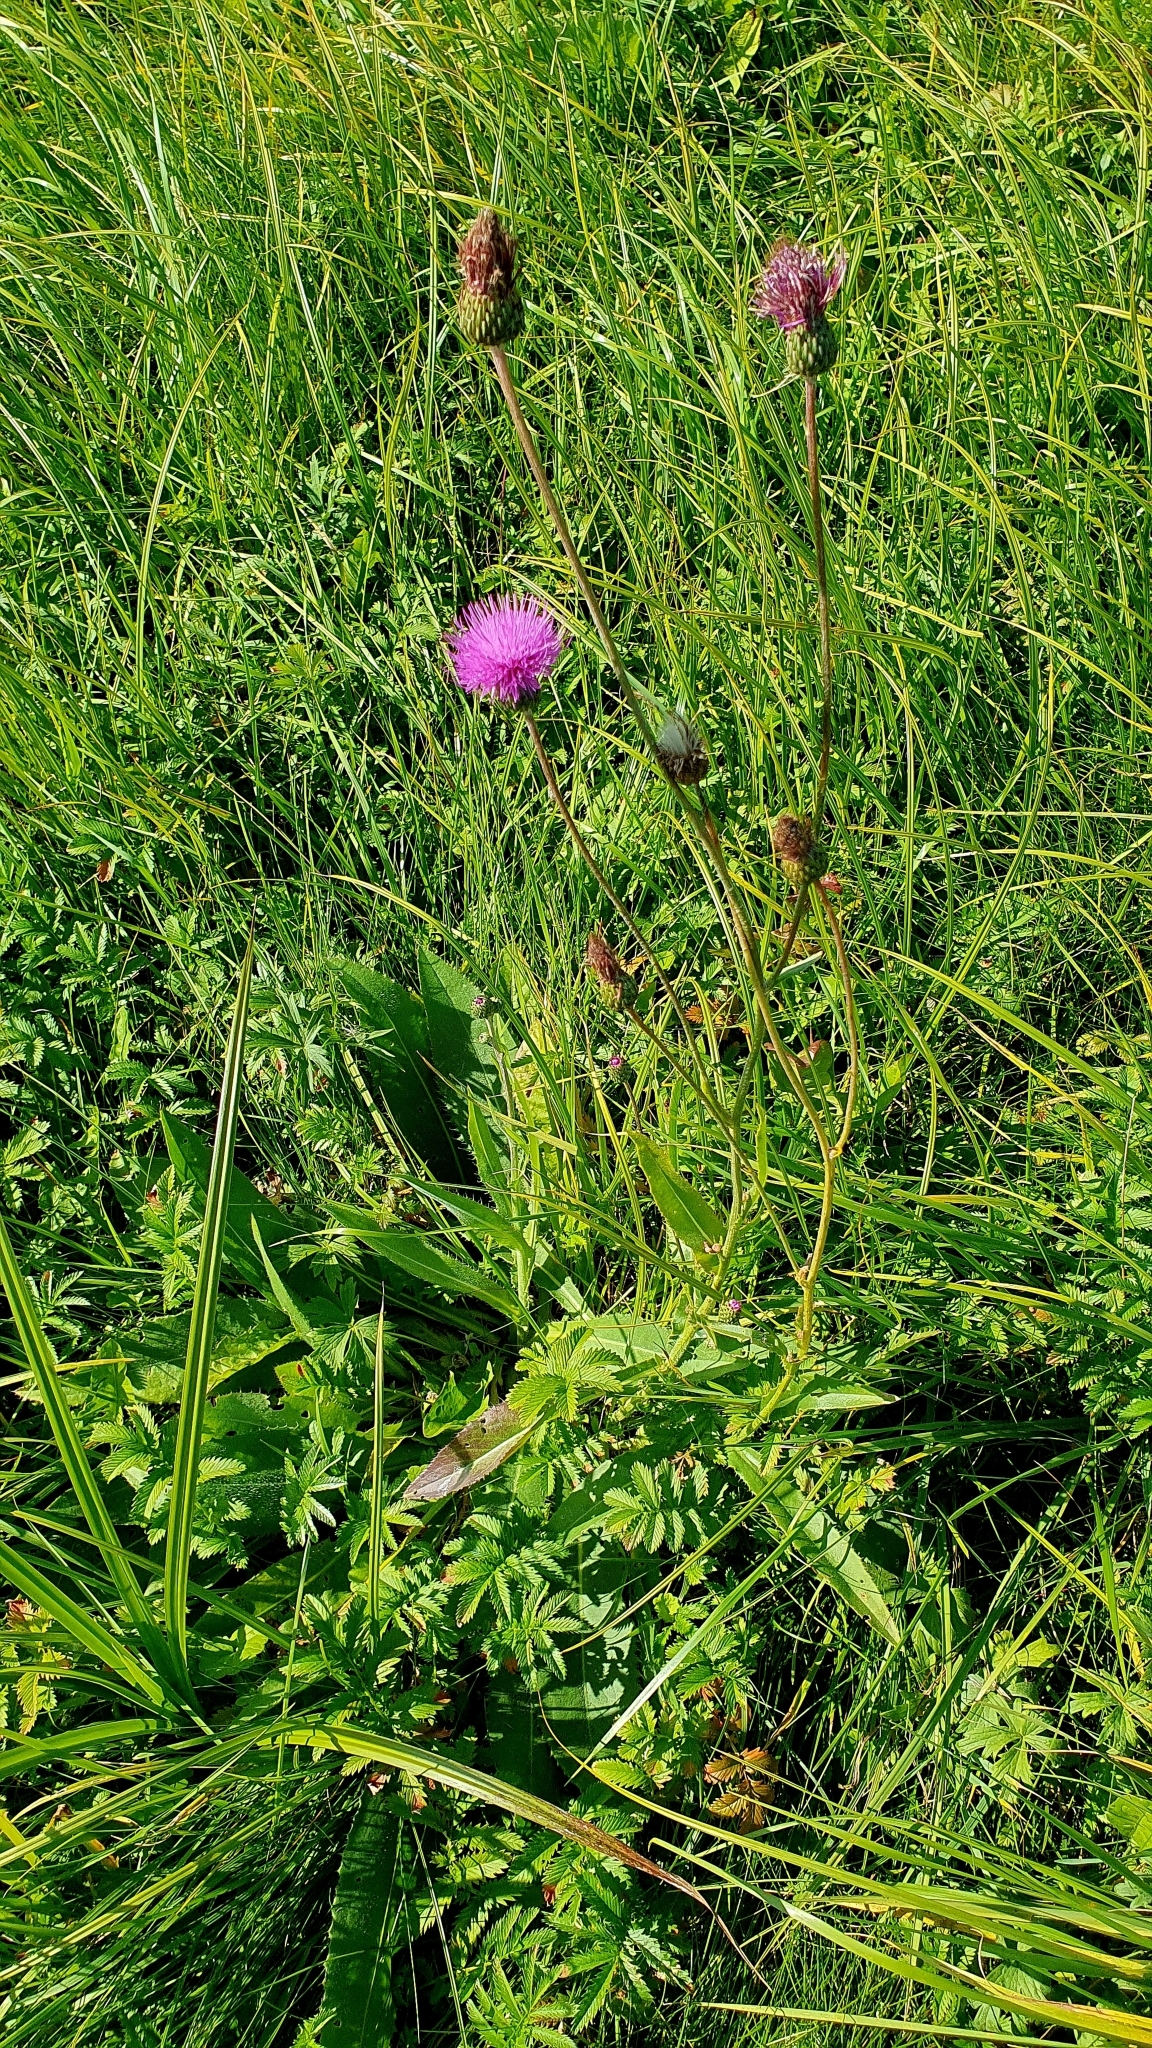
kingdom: Plantae
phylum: Tracheophyta
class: Magnoliopsida
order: Asterales
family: Asteraceae
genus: Cirsium
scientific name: Cirsium canum
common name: Queen anne's thistle
